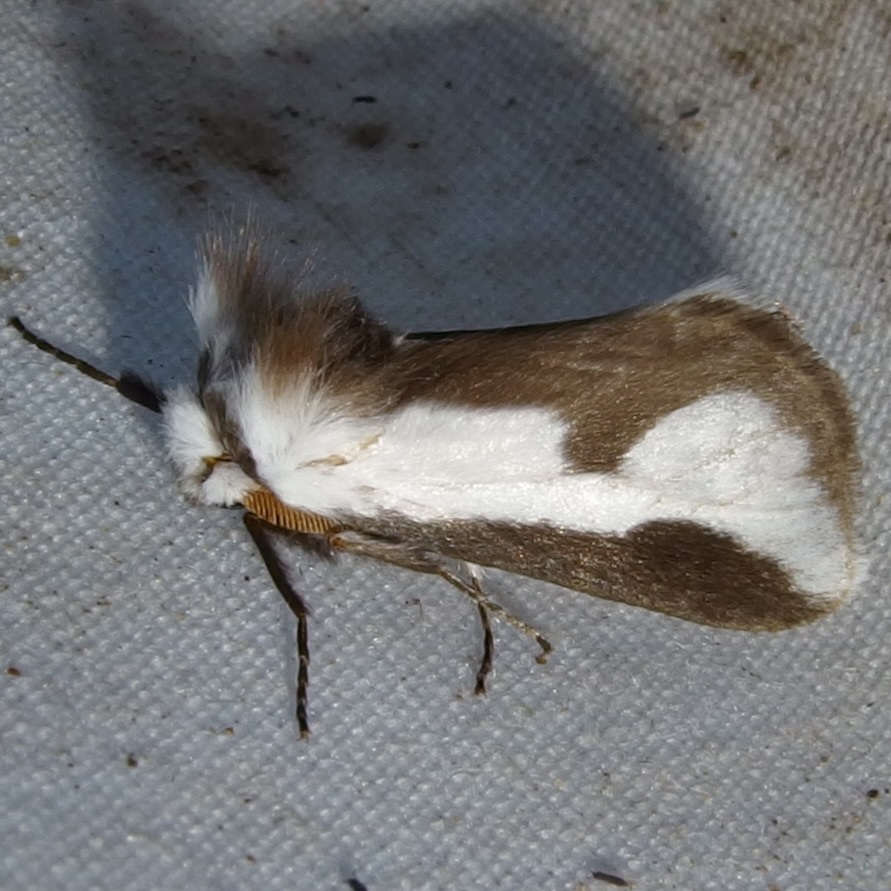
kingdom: Animalia
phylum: Arthropoda
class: Insecta
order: Lepidoptera
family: Megalopygidae
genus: Norape
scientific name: Norape tener
